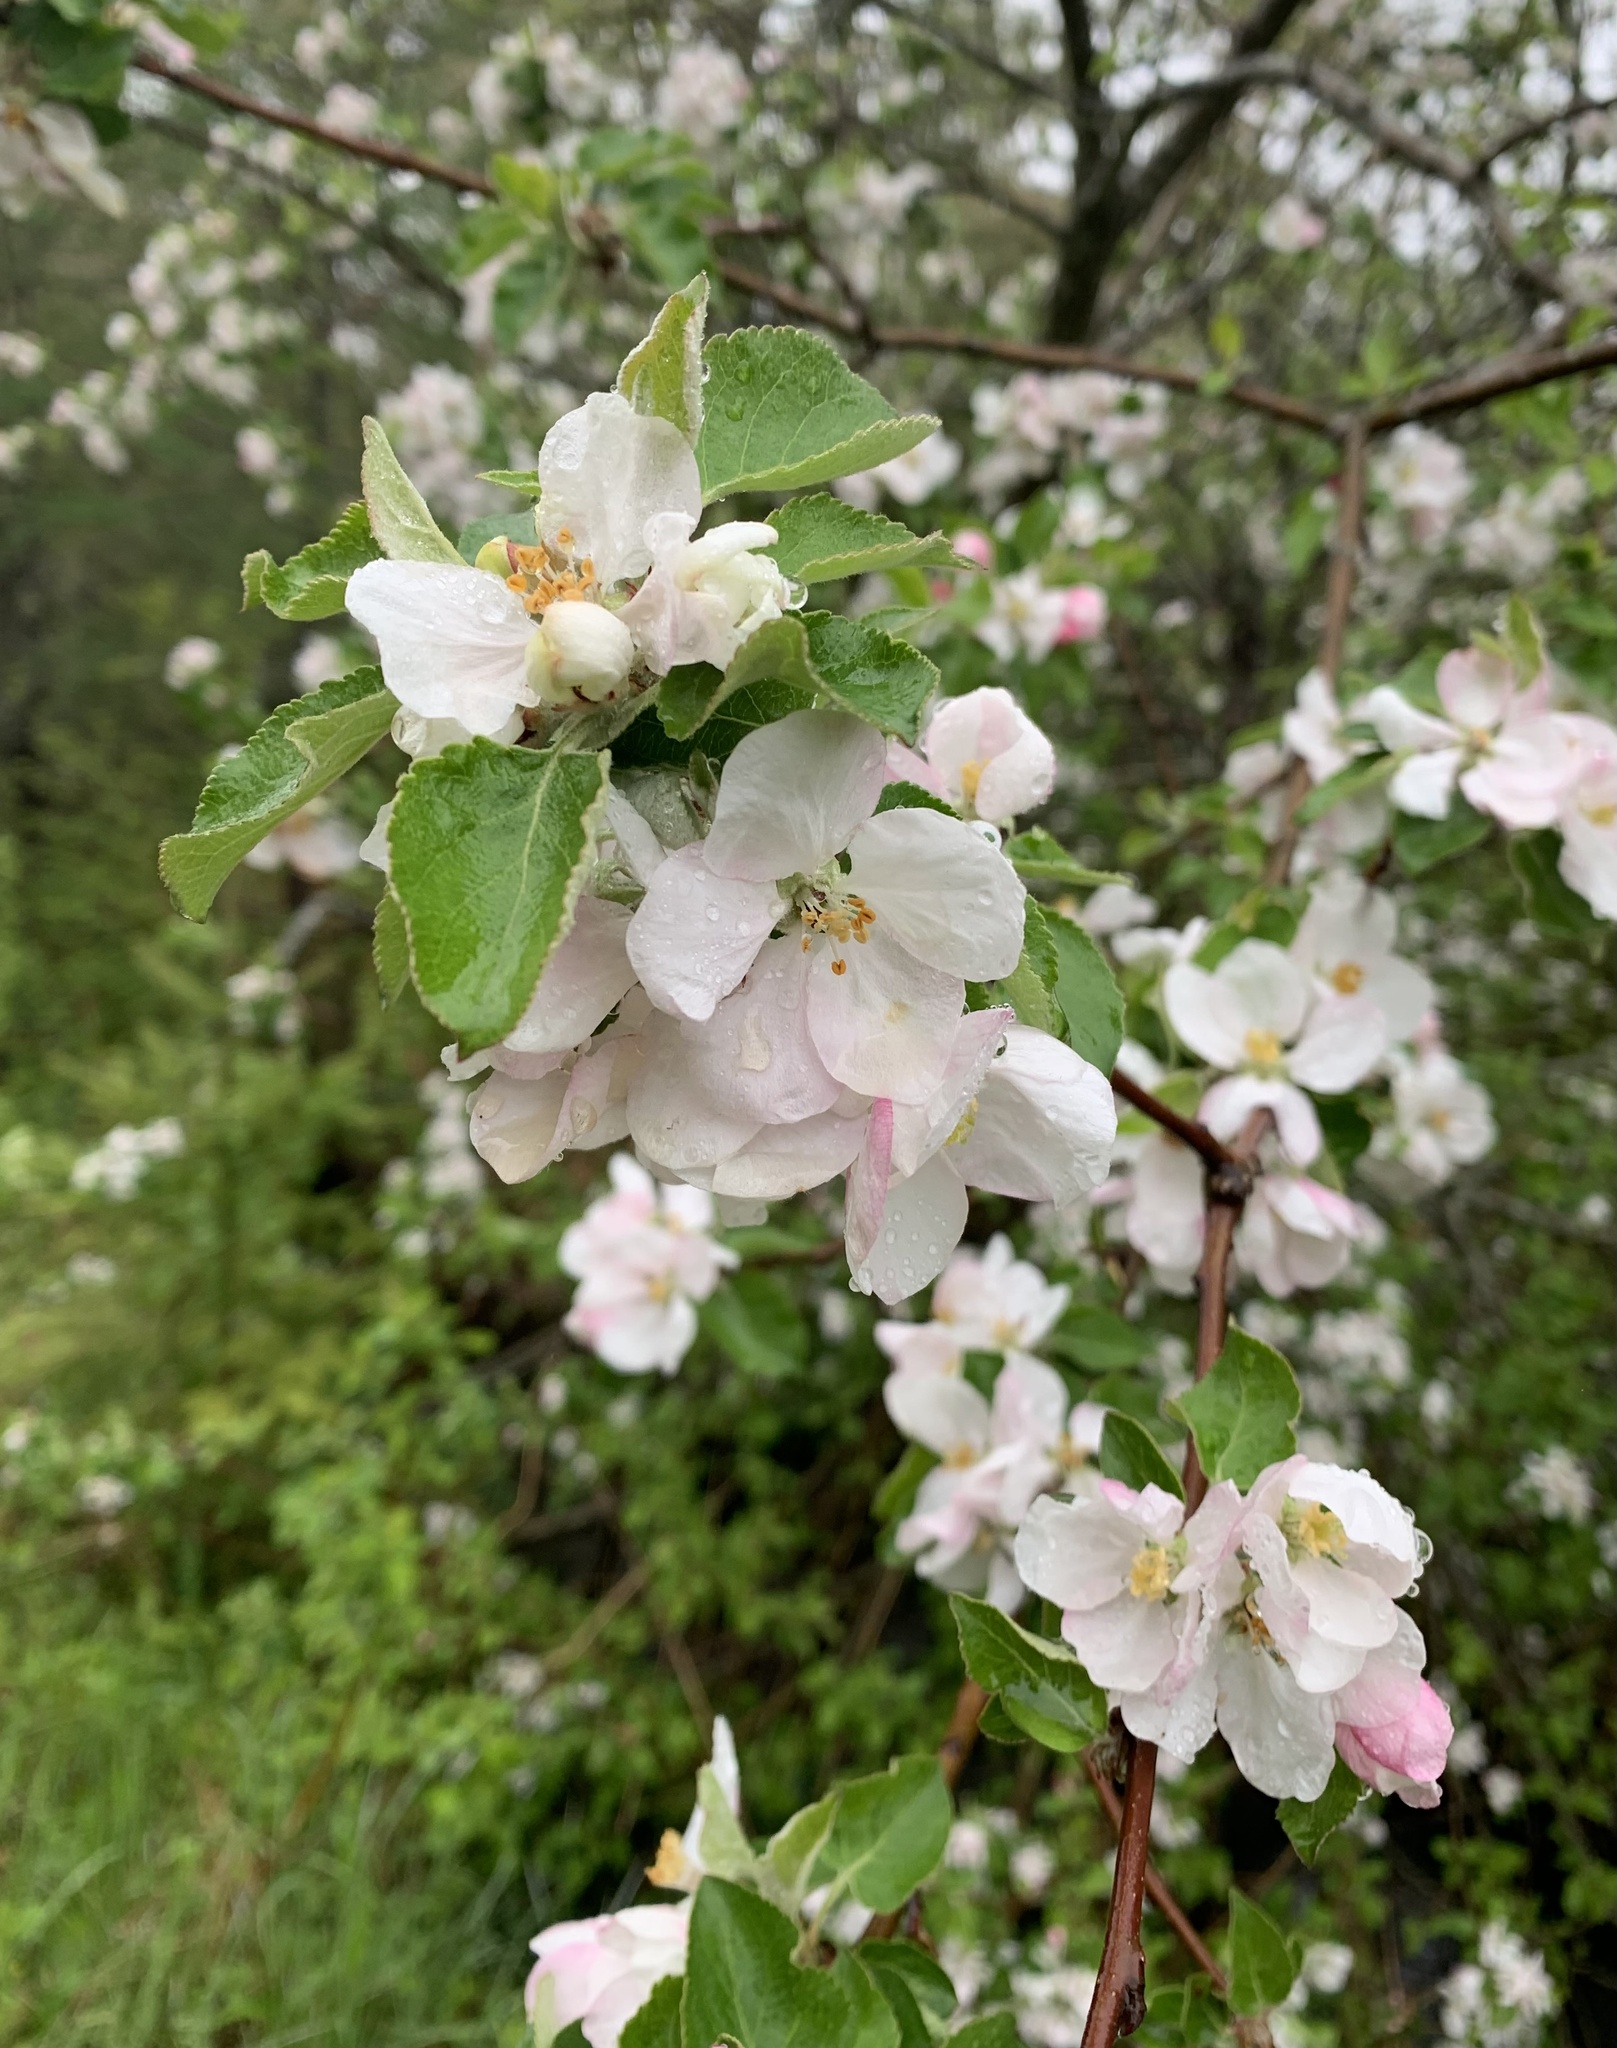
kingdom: Plantae
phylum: Tracheophyta
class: Magnoliopsida
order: Rosales
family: Rosaceae
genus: Malus
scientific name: Malus domestica
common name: Apple
